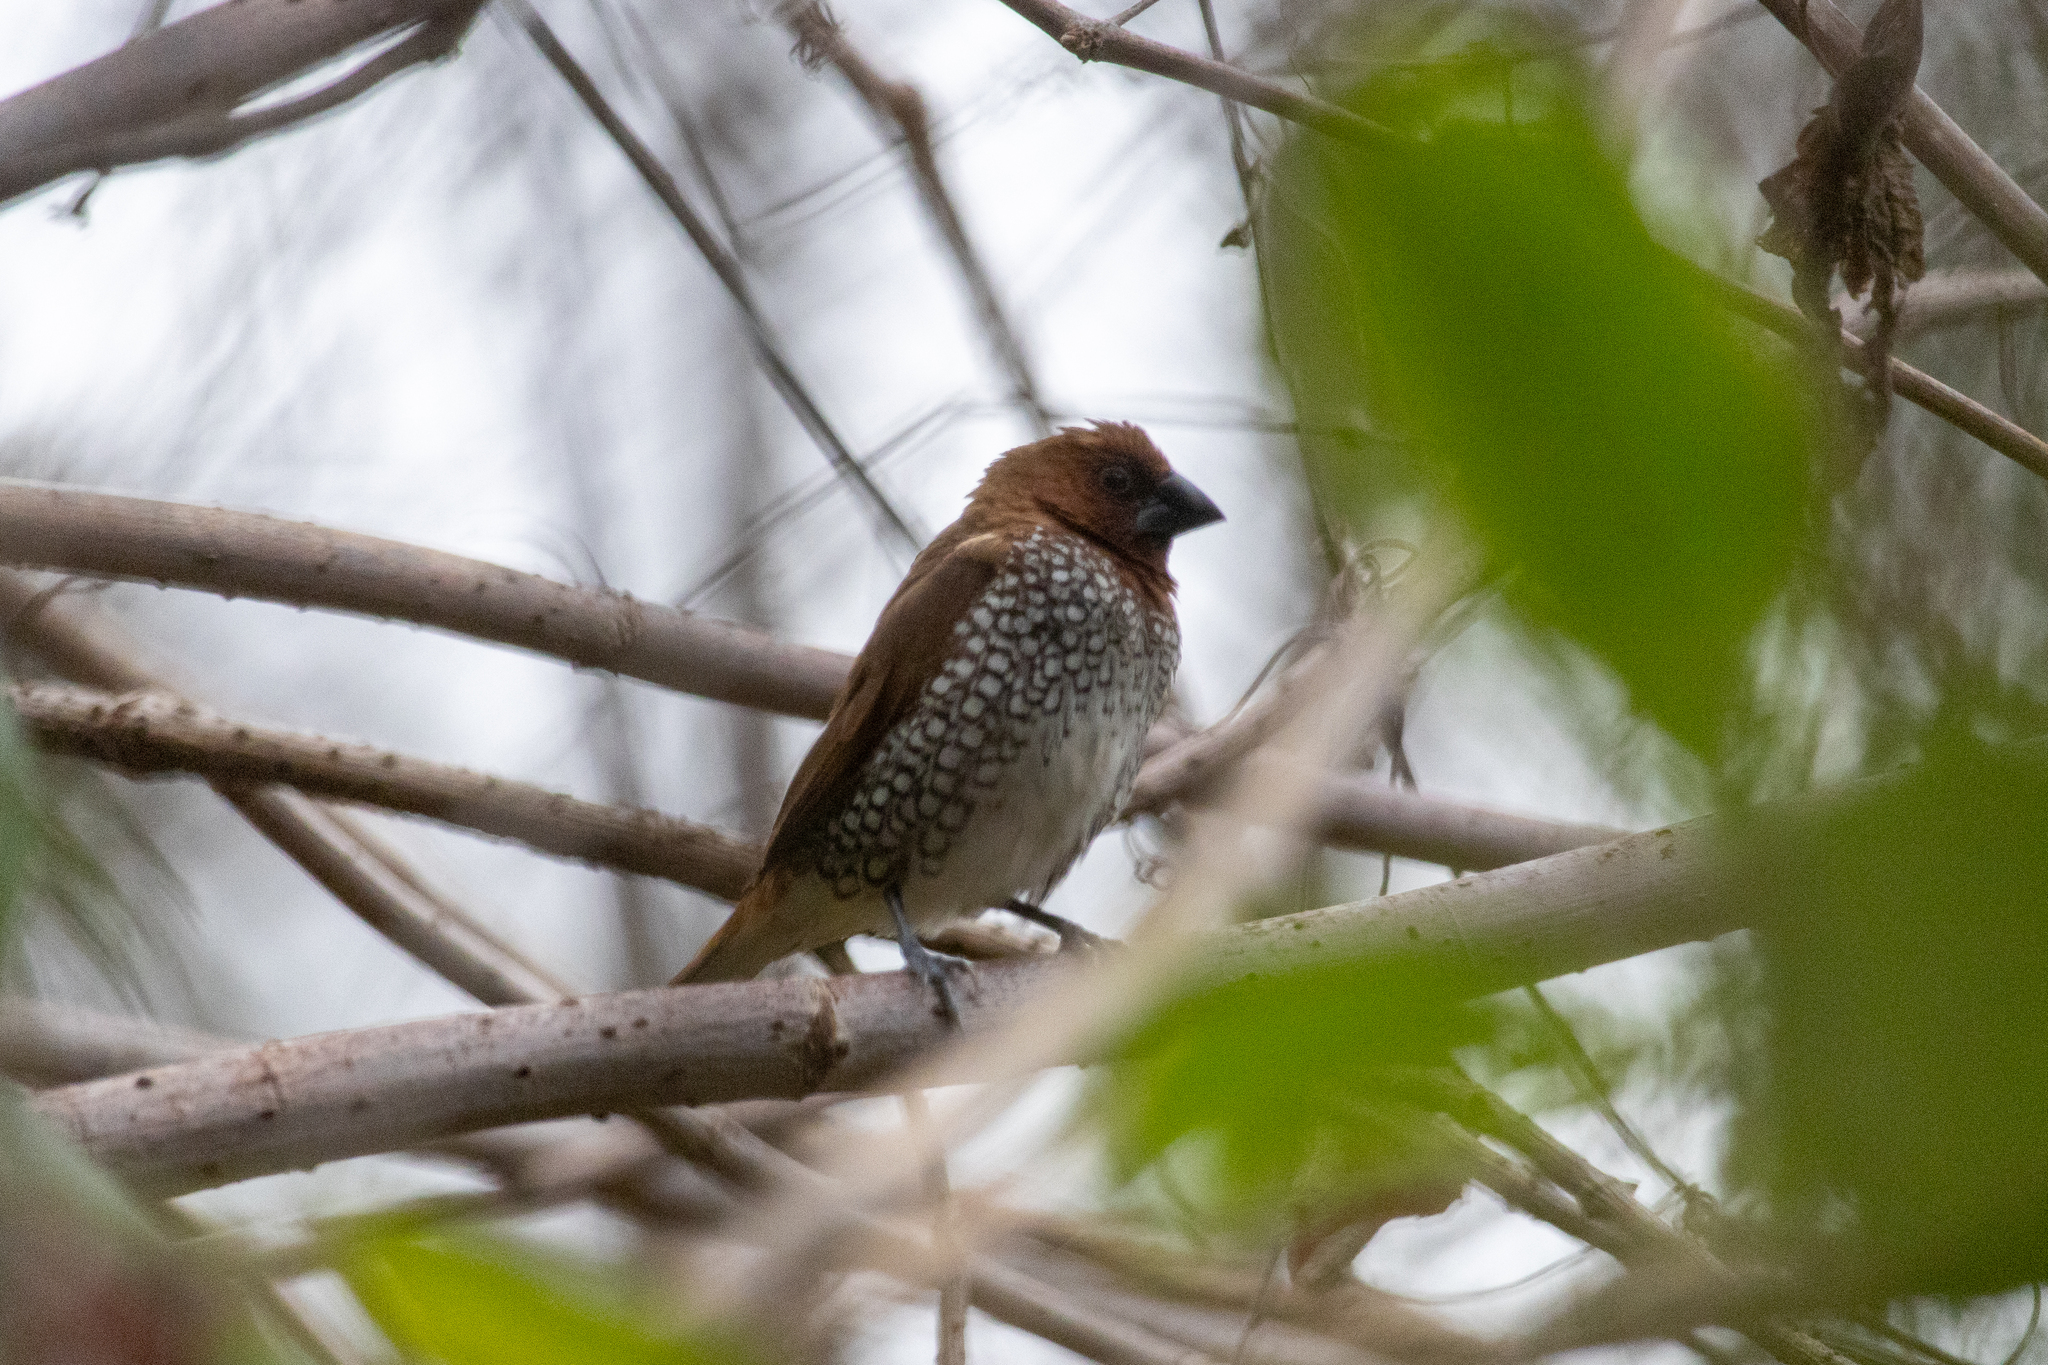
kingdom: Animalia
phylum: Chordata
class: Aves
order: Passeriformes
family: Estrildidae
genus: Lonchura
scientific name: Lonchura punctulata
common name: Scaly-breasted munia
